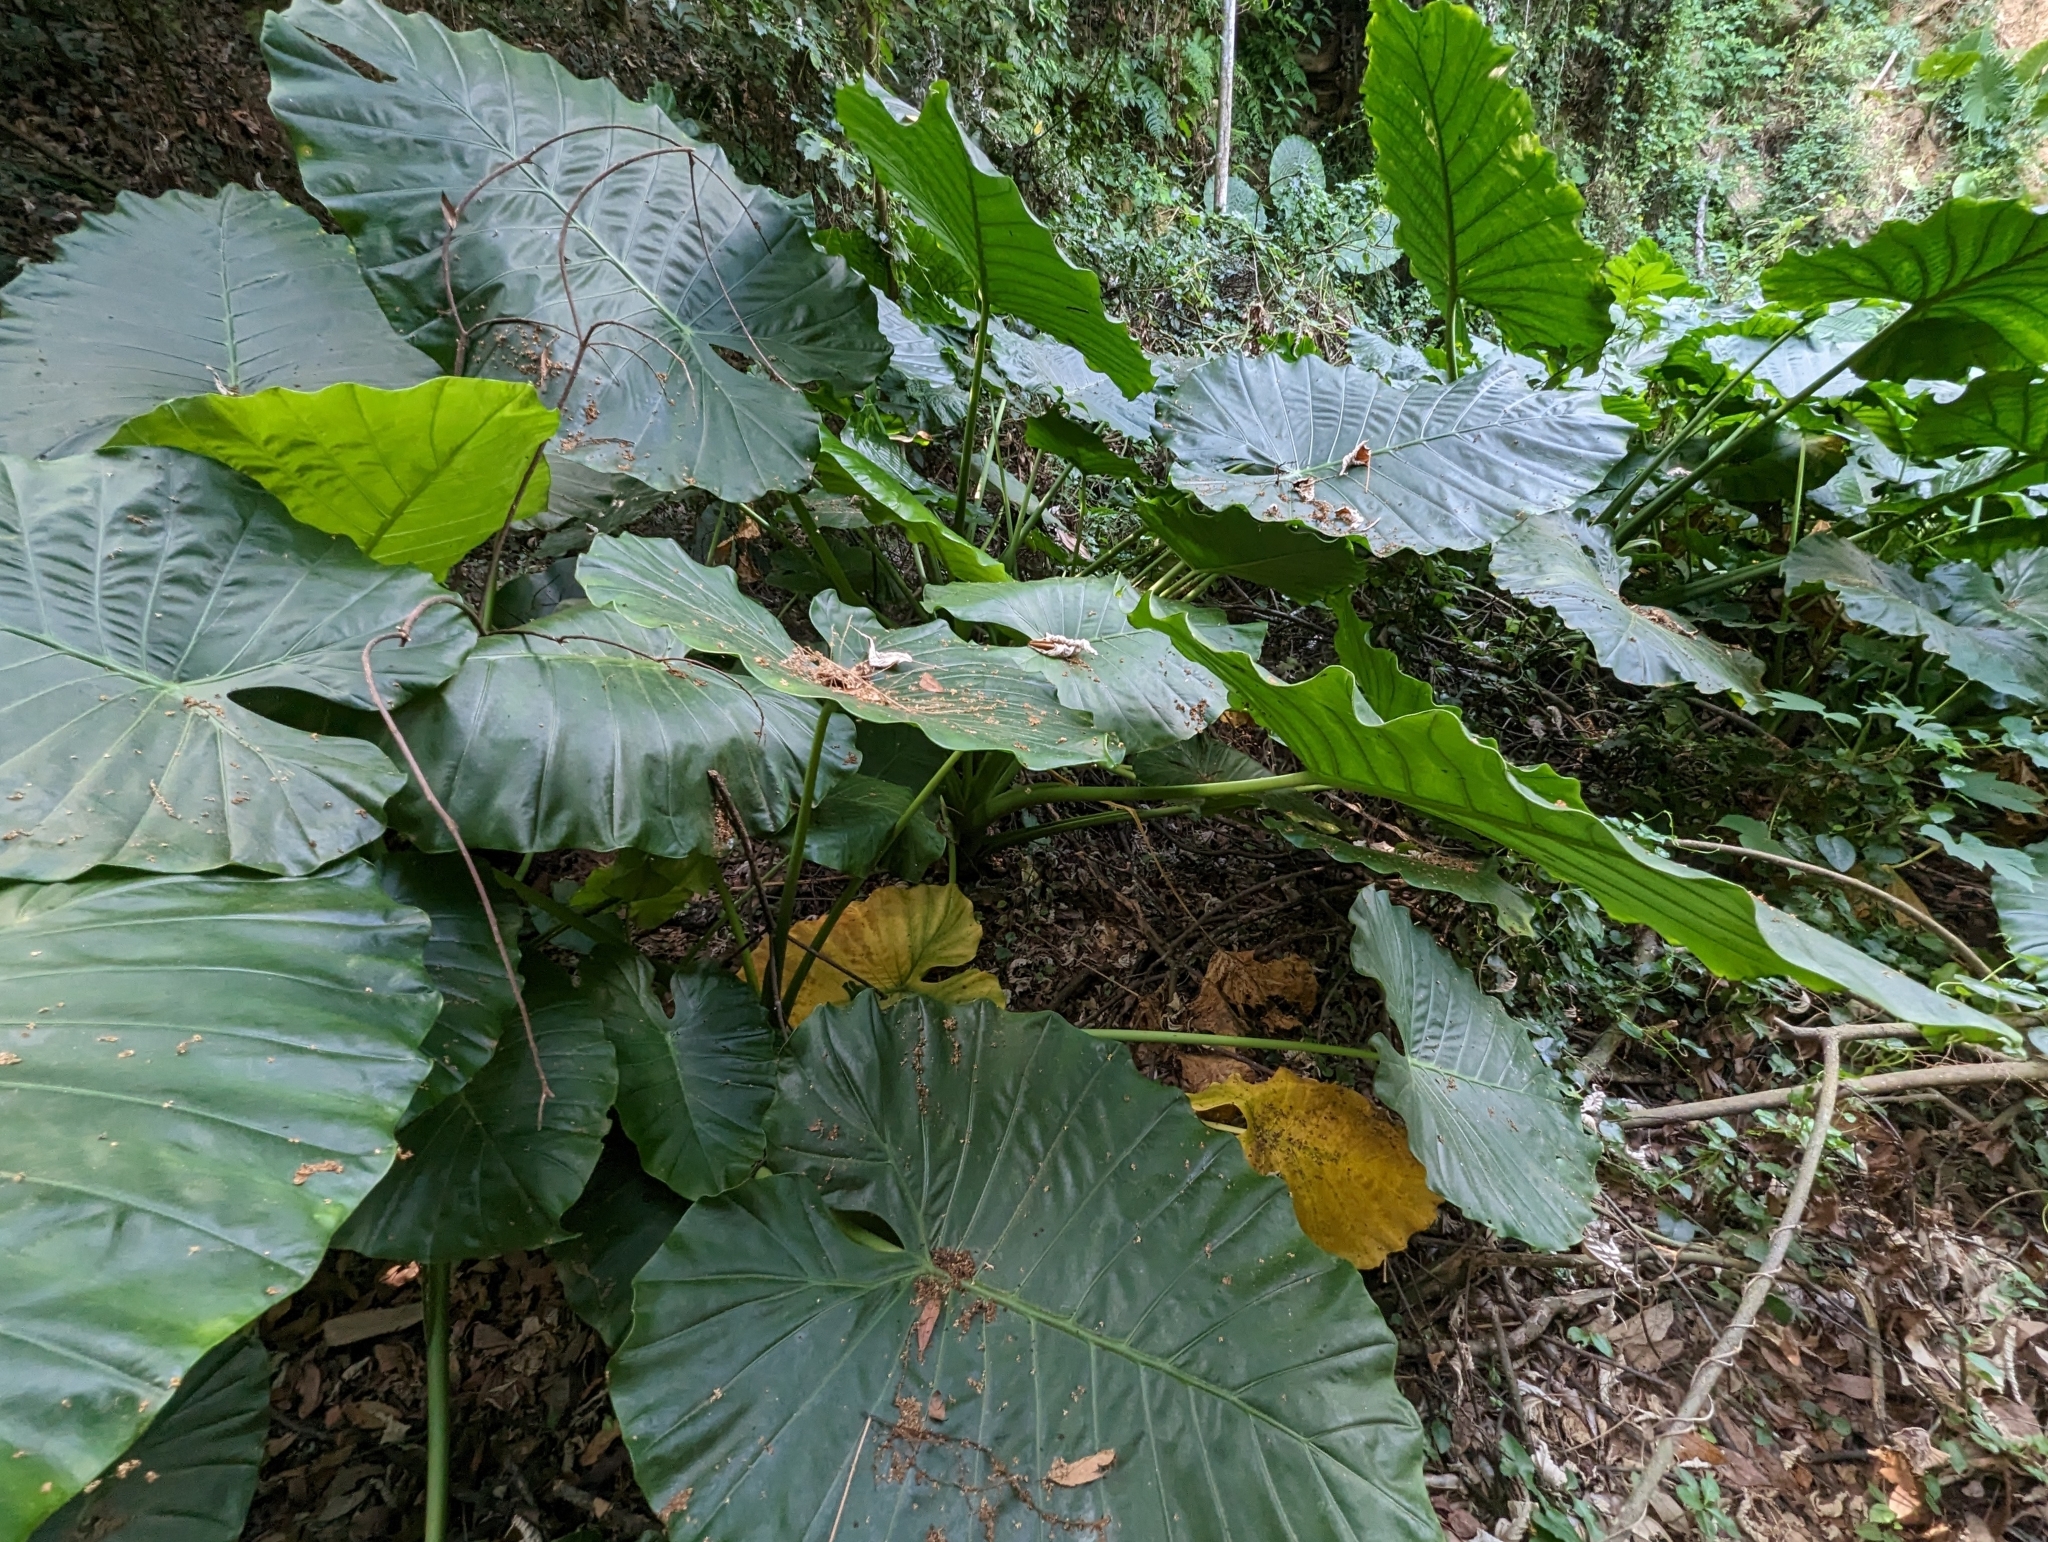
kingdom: Plantae
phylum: Tracheophyta
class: Liliopsida
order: Alismatales
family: Araceae
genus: Alocasia
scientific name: Alocasia odora
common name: Asian taro
